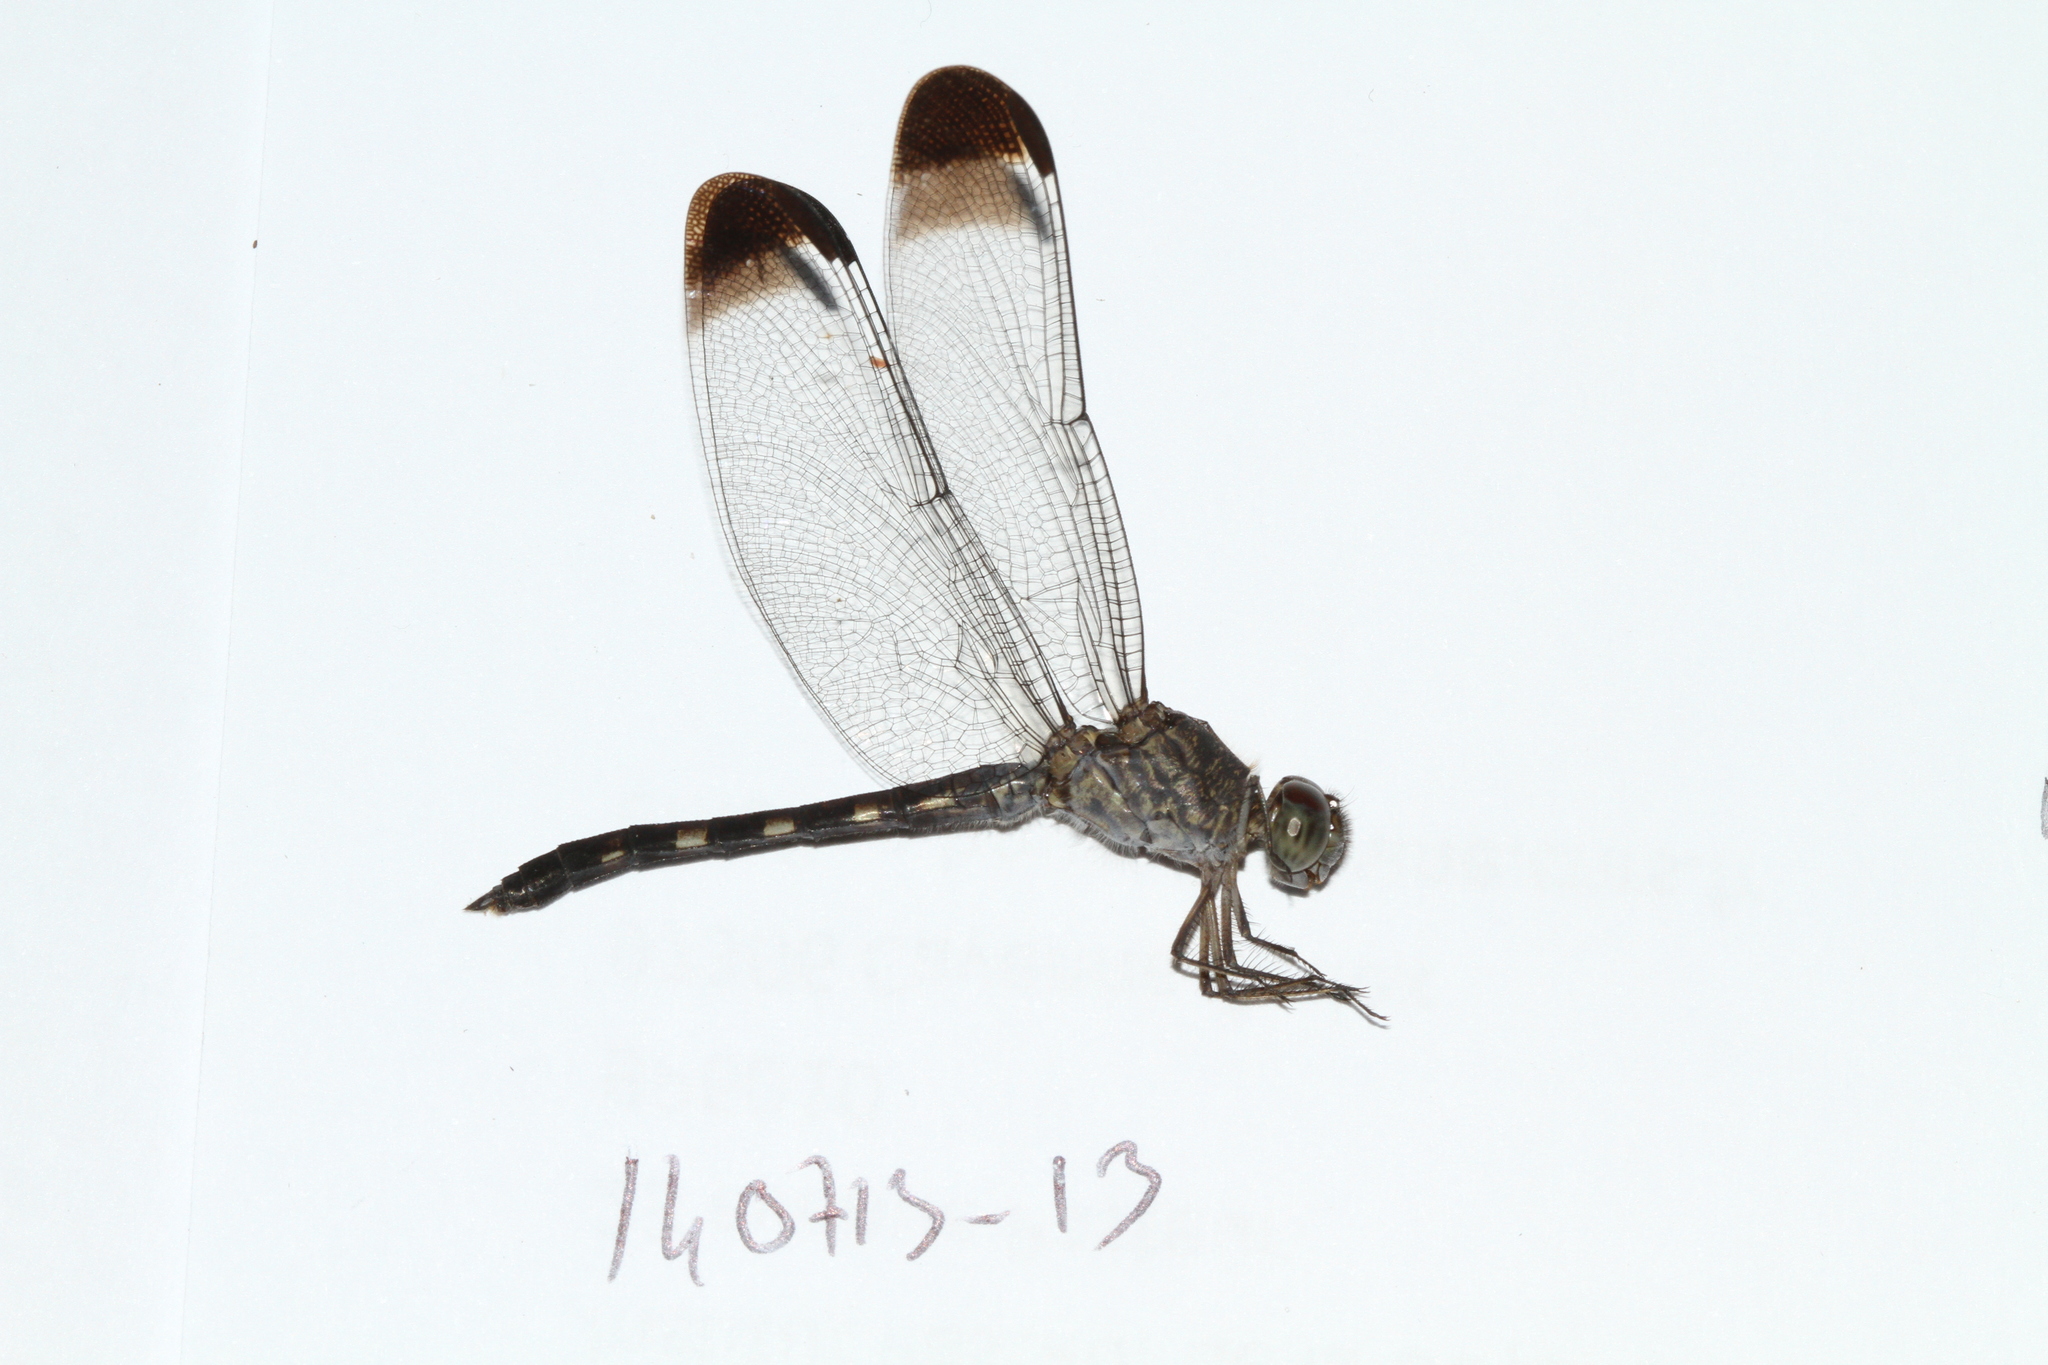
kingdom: Animalia
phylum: Arthropoda
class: Insecta
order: Odonata
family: Libellulidae
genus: Uracis
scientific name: Uracis imbuta
